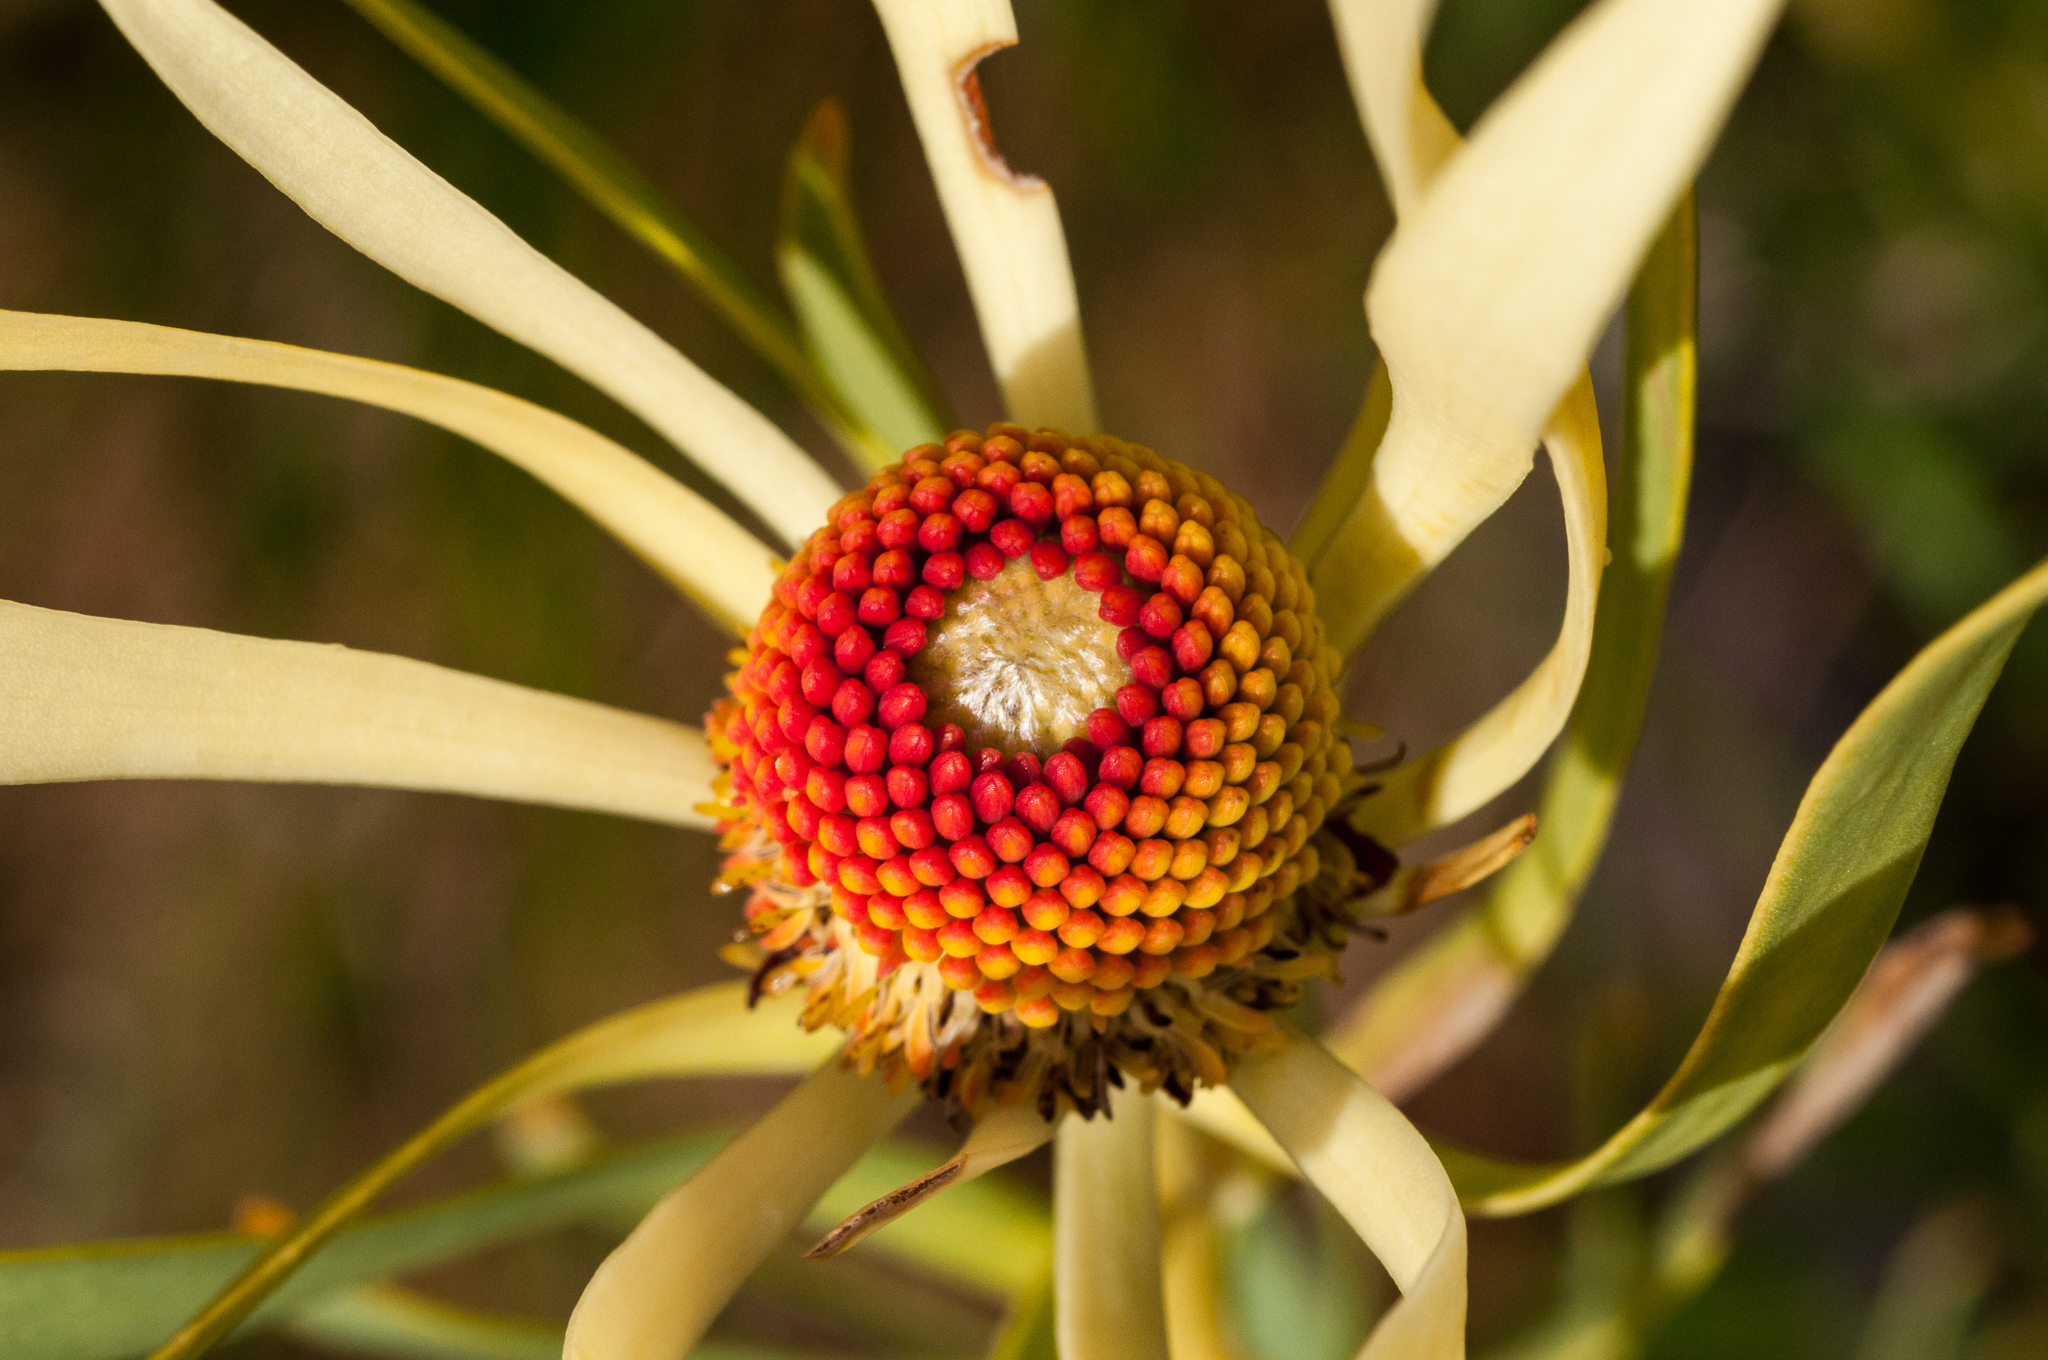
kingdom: Plantae
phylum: Tracheophyta
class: Magnoliopsida
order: Proteales
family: Proteaceae
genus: Leucadendron
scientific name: Leucadendron salignum
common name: Common sunshine conebush
